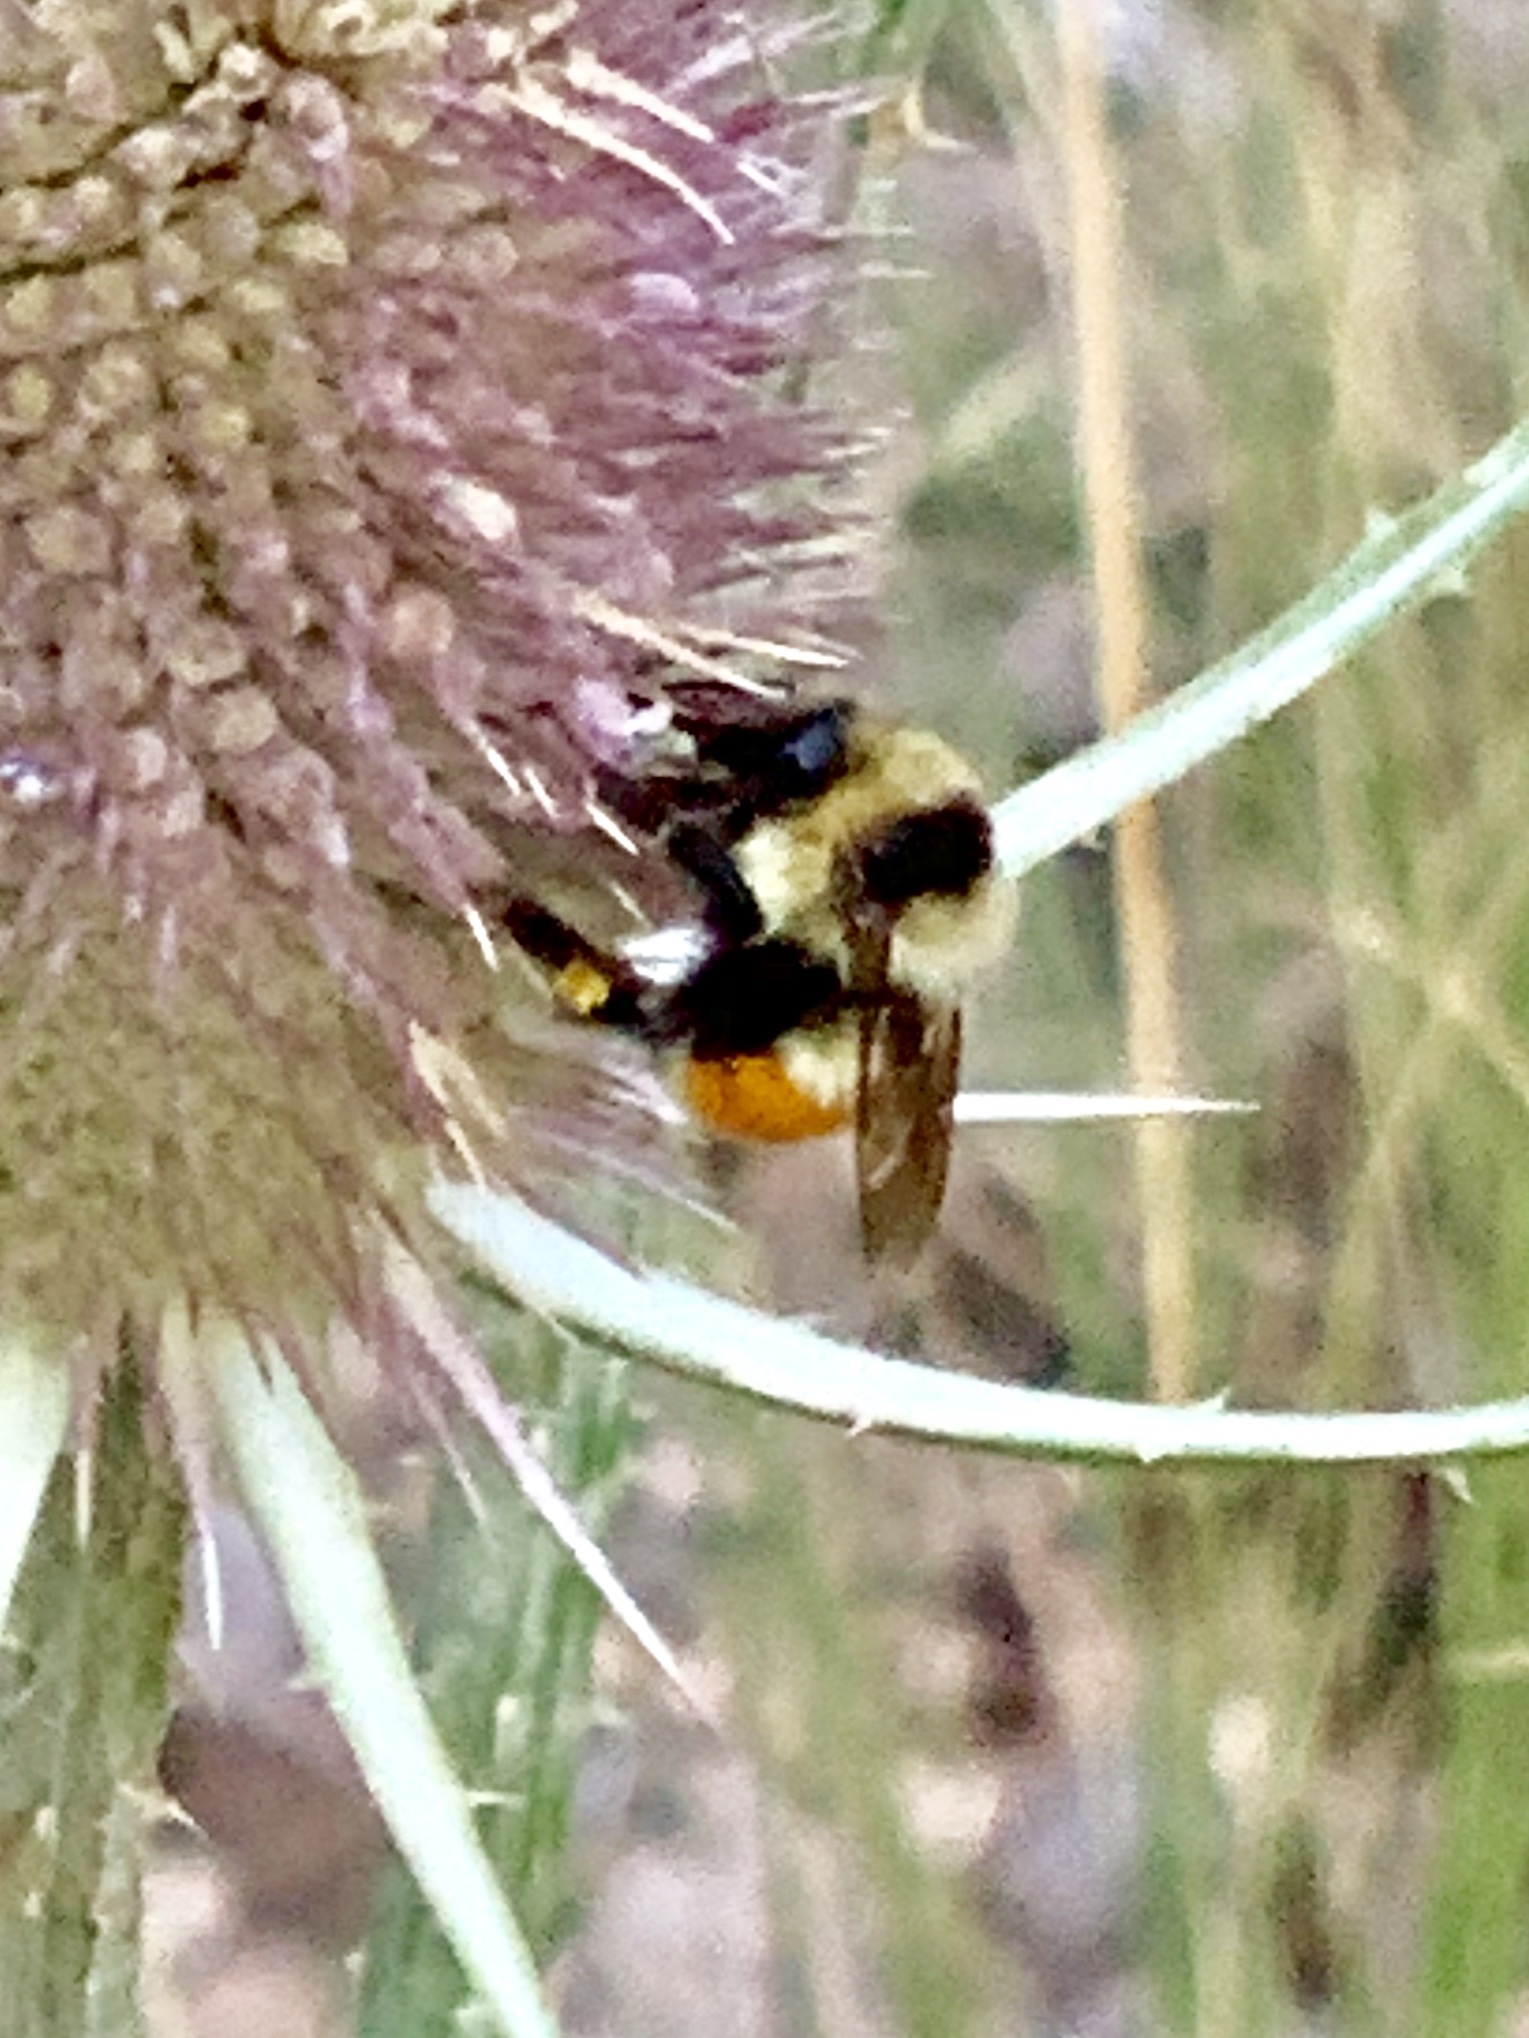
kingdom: Animalia
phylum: Arthropoda
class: Insecta
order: Hymenoptera
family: Apidae
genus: Bombus
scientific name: Bombus huntii
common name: Hunt bumble bee
